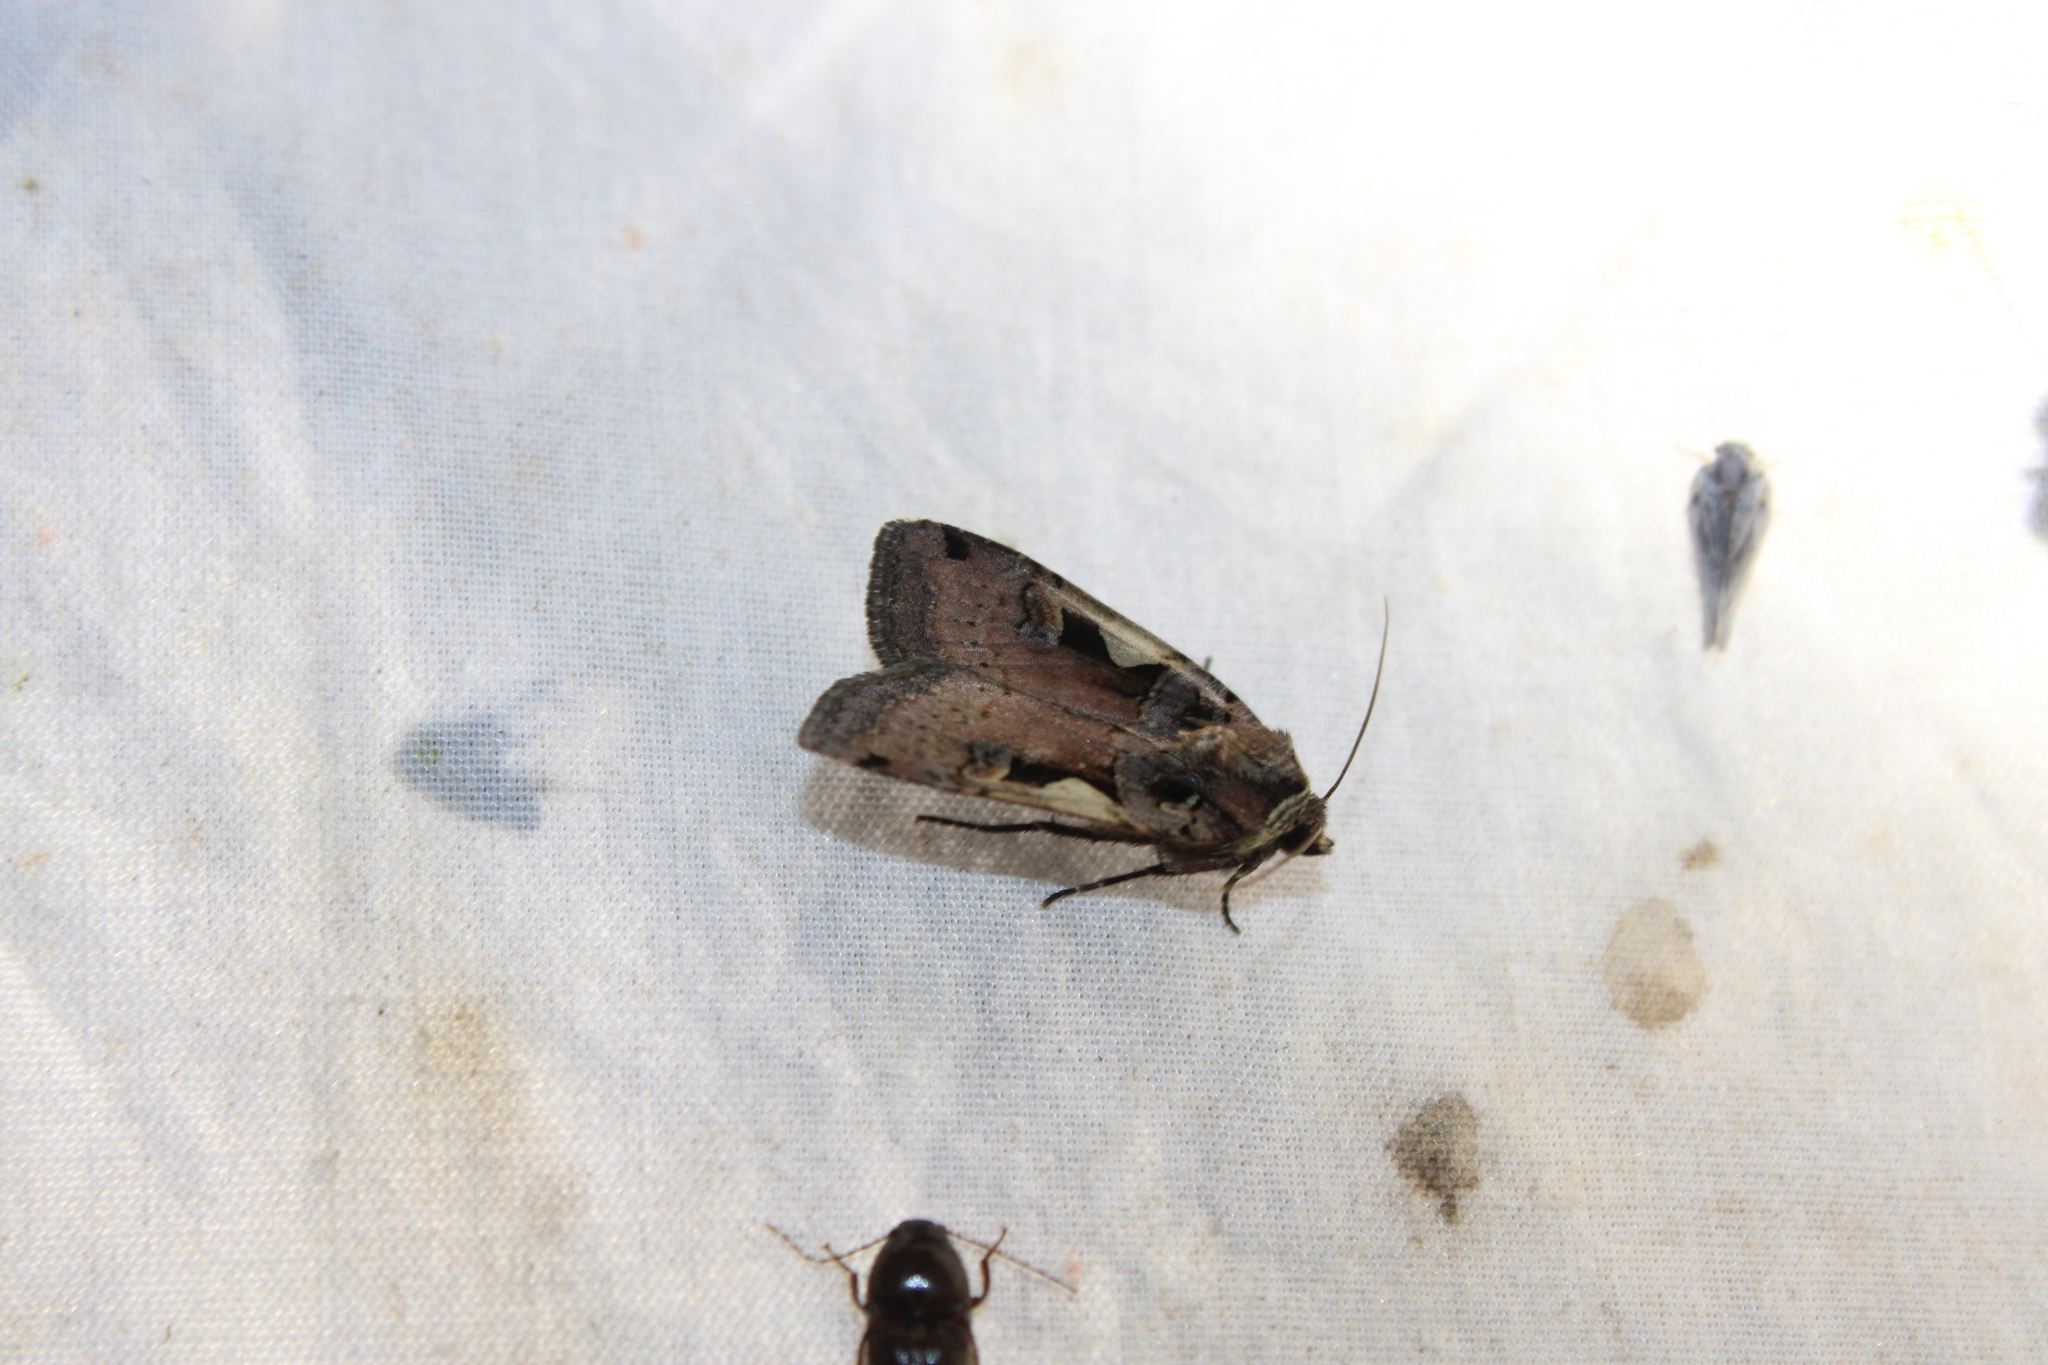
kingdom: Animalia
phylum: Arthropoda
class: Insecta
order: Lepidoptera
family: Noctuidae
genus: Xestia
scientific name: Xestia c-nigrum
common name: Setaceous hebrew character
